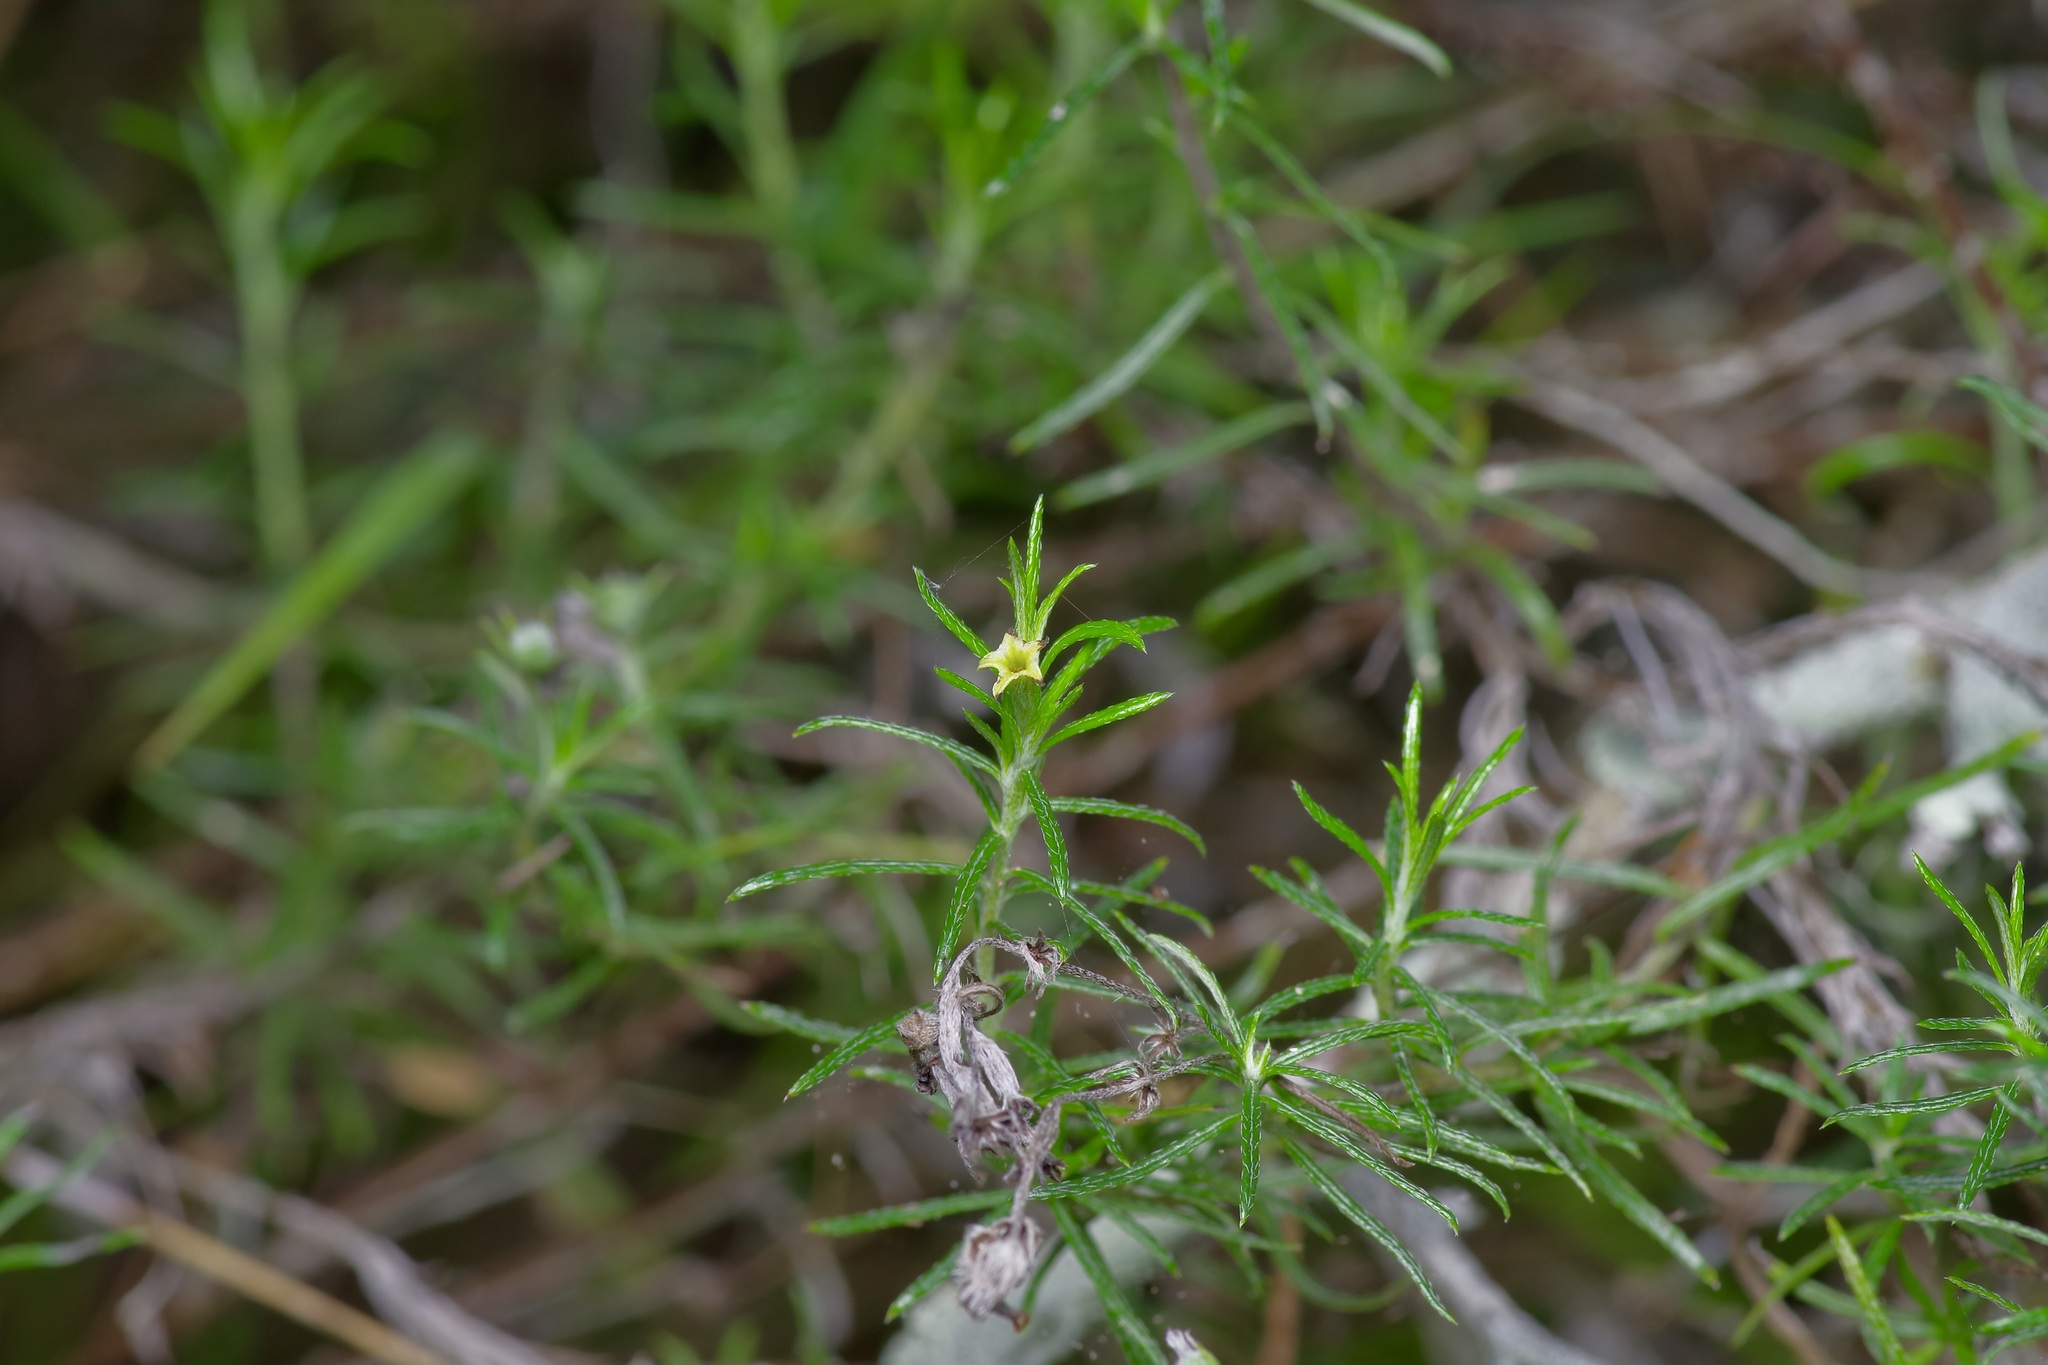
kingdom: Plantae
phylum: Tracheophyta
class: Magnoliopsida
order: Boraginales
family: Heliotropiaceae
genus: Euploca
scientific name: Euploca torreyi
